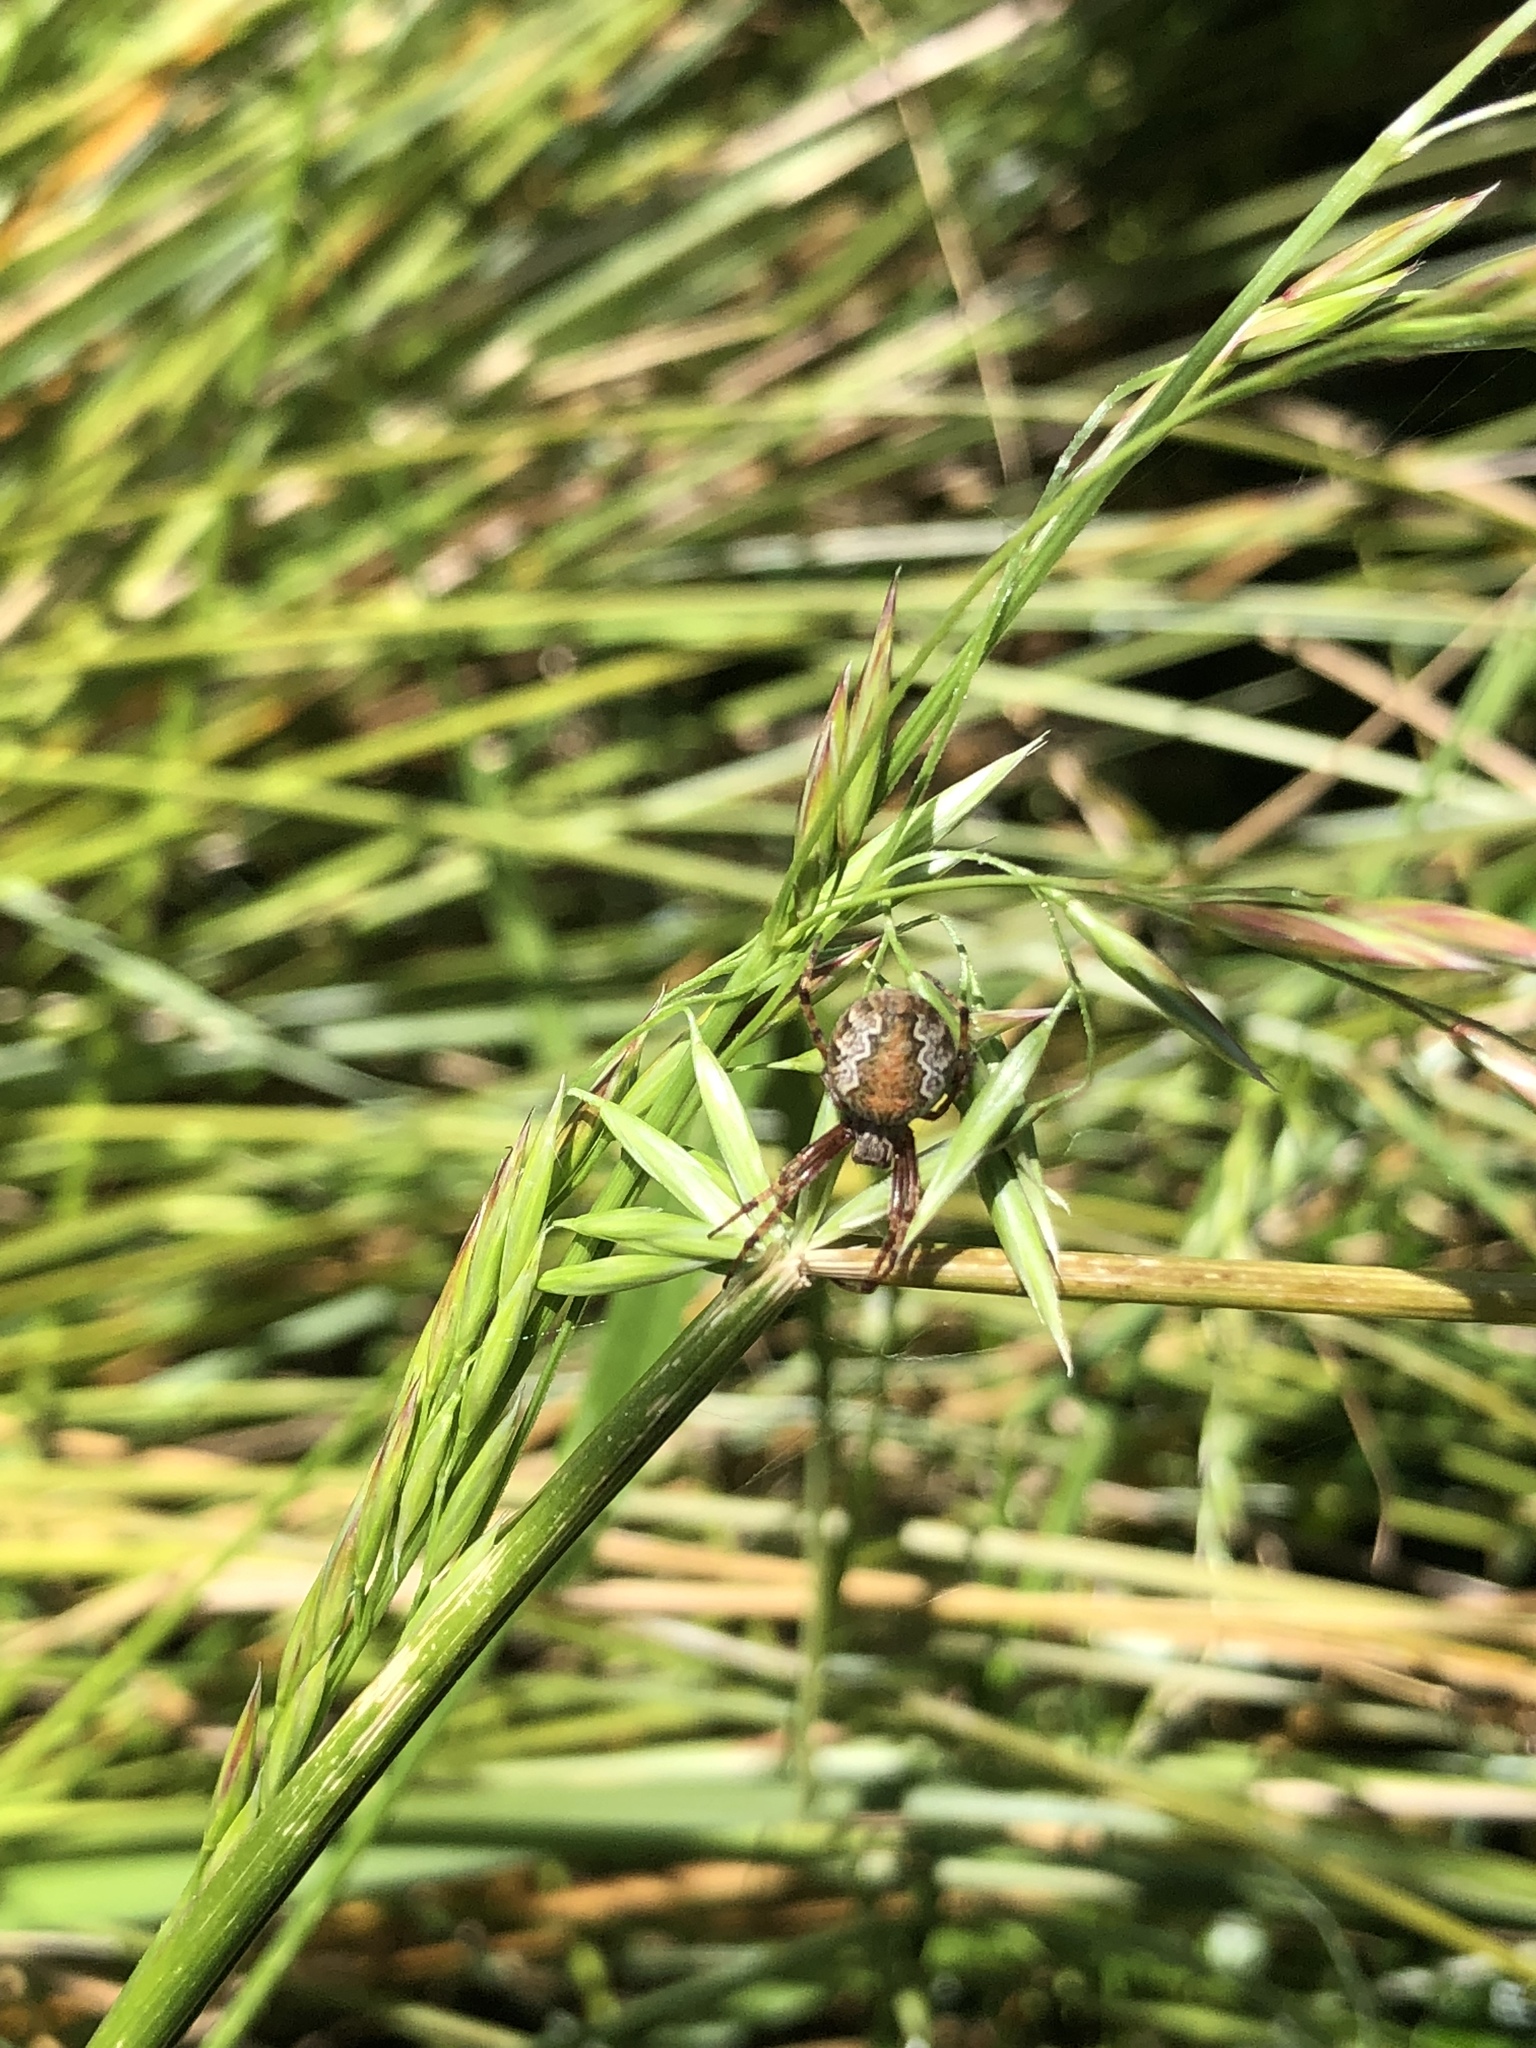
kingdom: Animalia
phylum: Arthropoda
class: Arachnida
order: Araneae
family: Araneidae
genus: Salsa
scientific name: Salsa fuliginata
